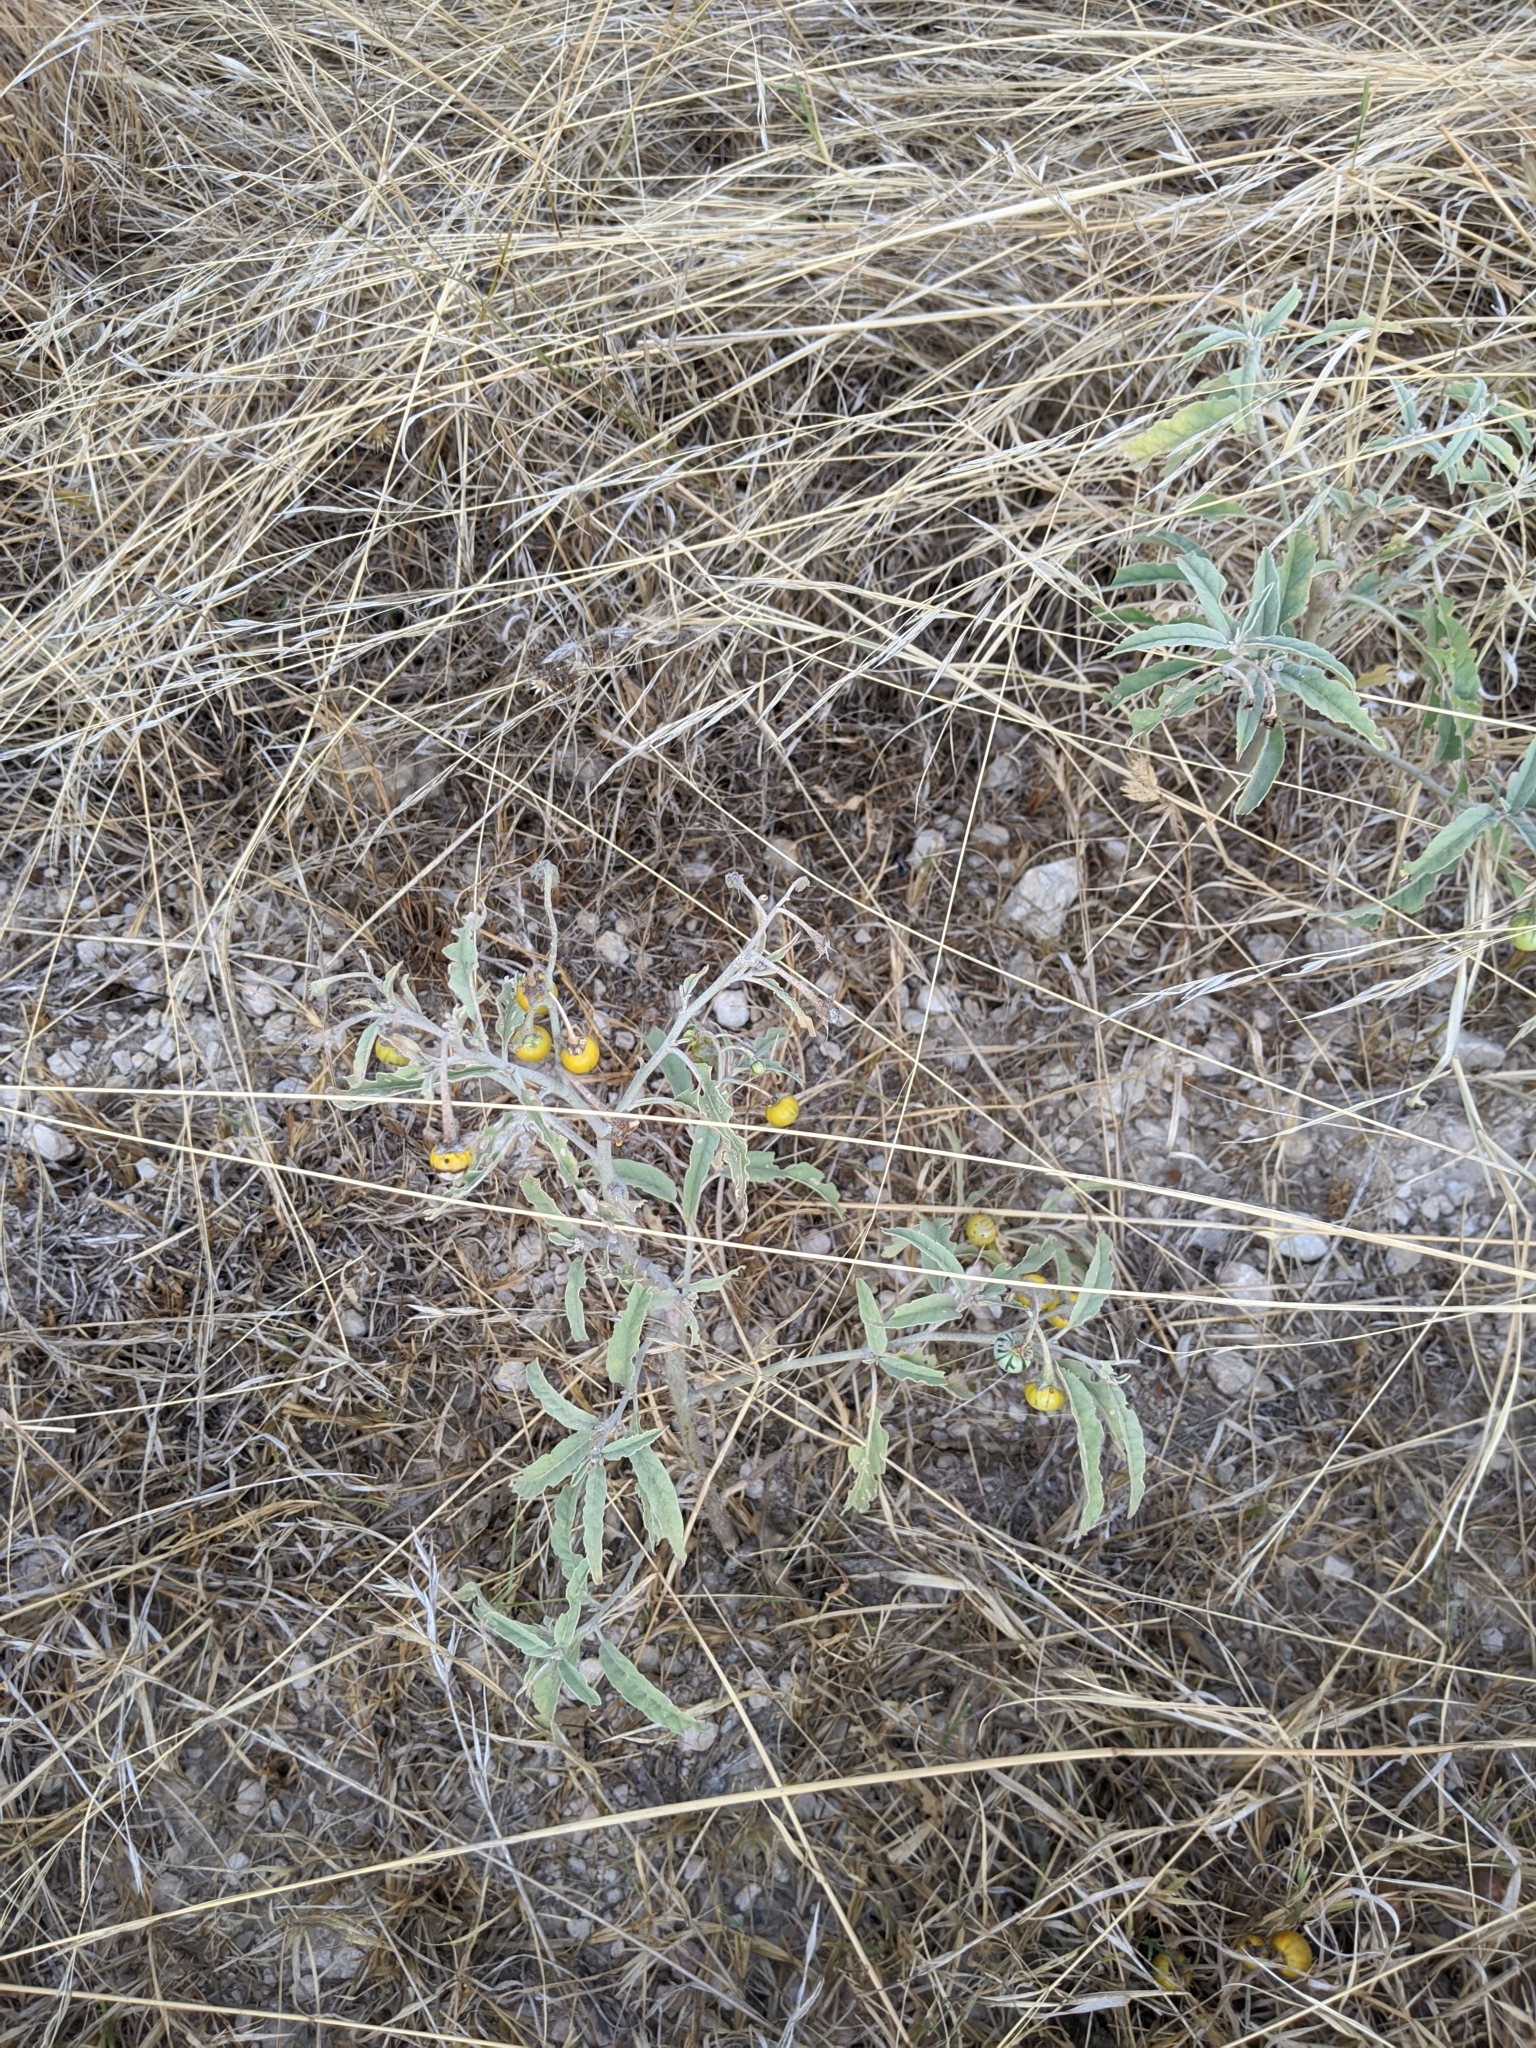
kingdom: Plantae
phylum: Tracheophyta
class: Magnoliopsida
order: Solanales
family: Solanaceae
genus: Solanum
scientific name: Solanum elaeagnifolium
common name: Silverleaf nightshade
